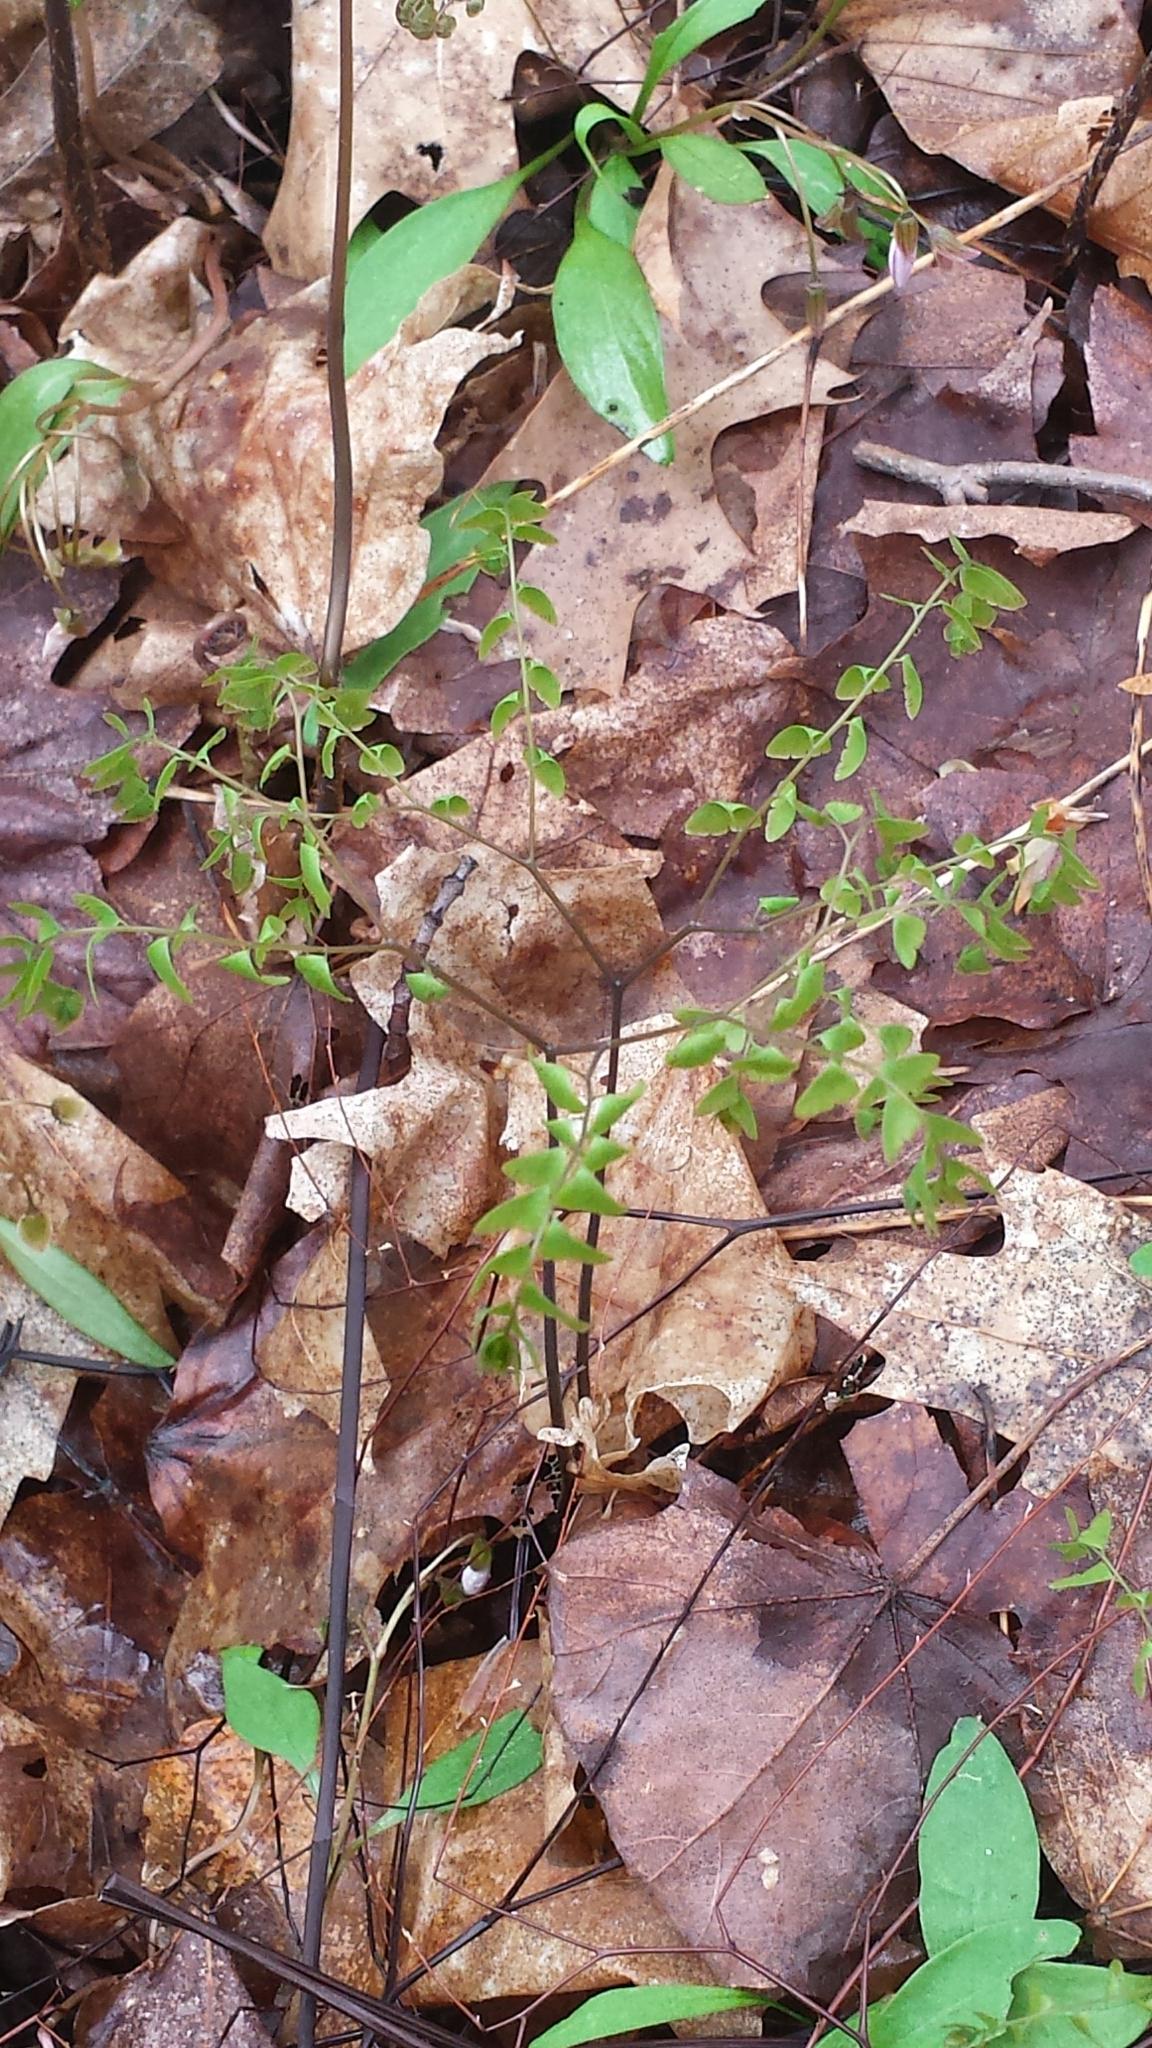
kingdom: Plantae
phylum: Tracheophyta
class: Polypodiopsida
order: Polypodiales
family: Pteridaceae
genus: Adiantum
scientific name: Adiantum pedatum
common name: Five-finger fern
